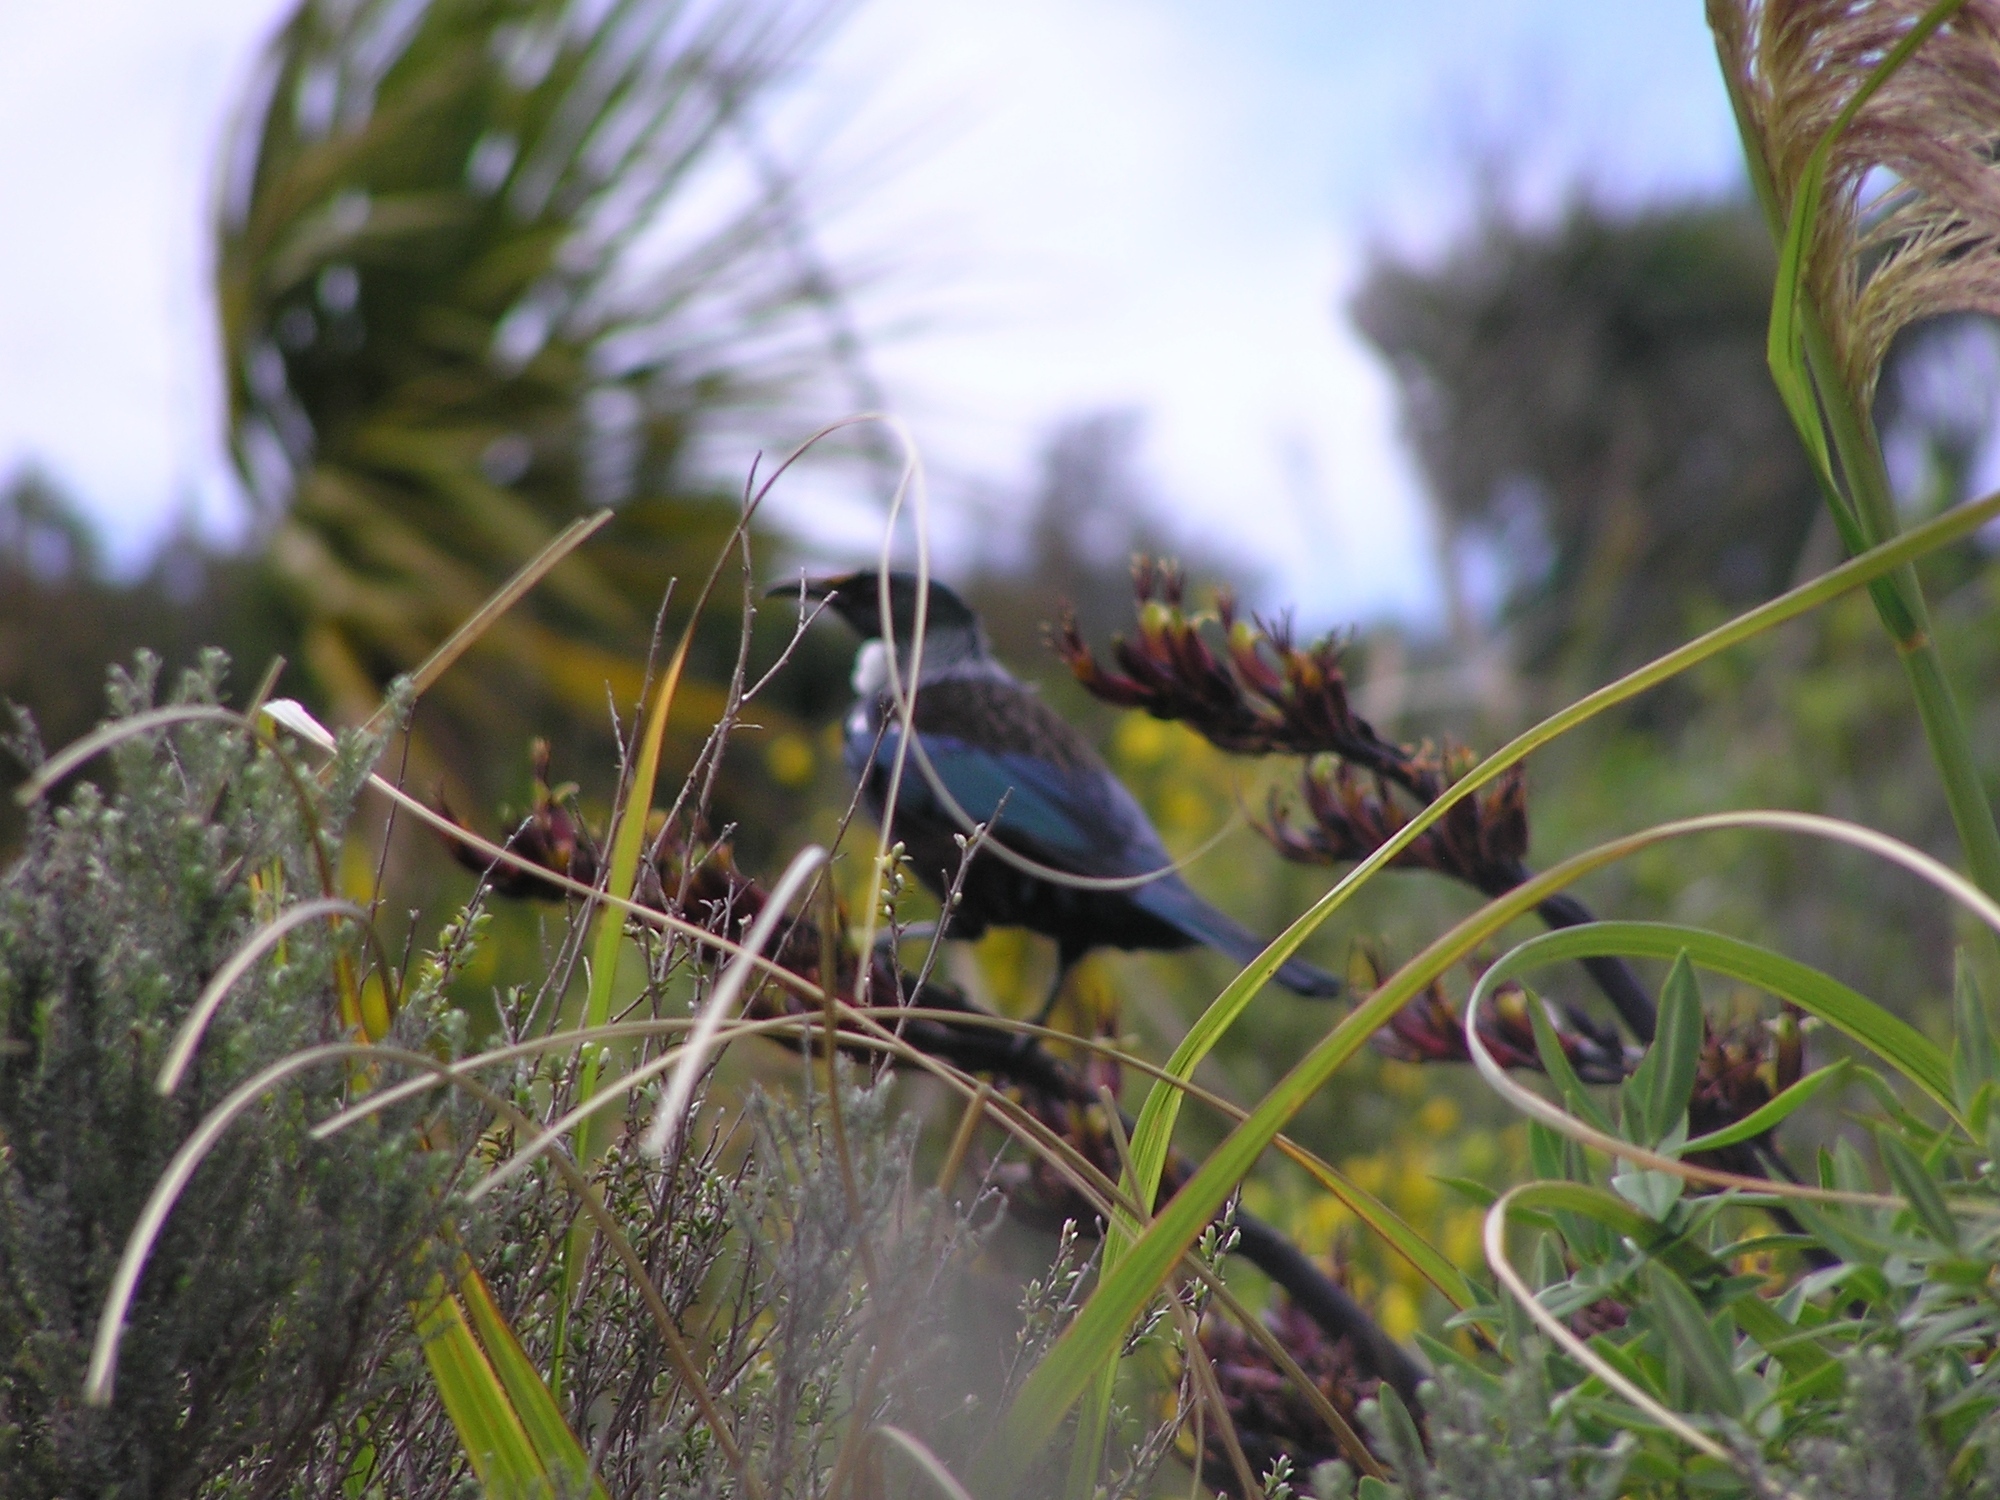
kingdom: Animalia
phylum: Chordata
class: Aves
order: Passeriformes
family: Meliphagidae
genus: Prosthemadera
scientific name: Prosthemadera novaeseelandiae
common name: Tui
